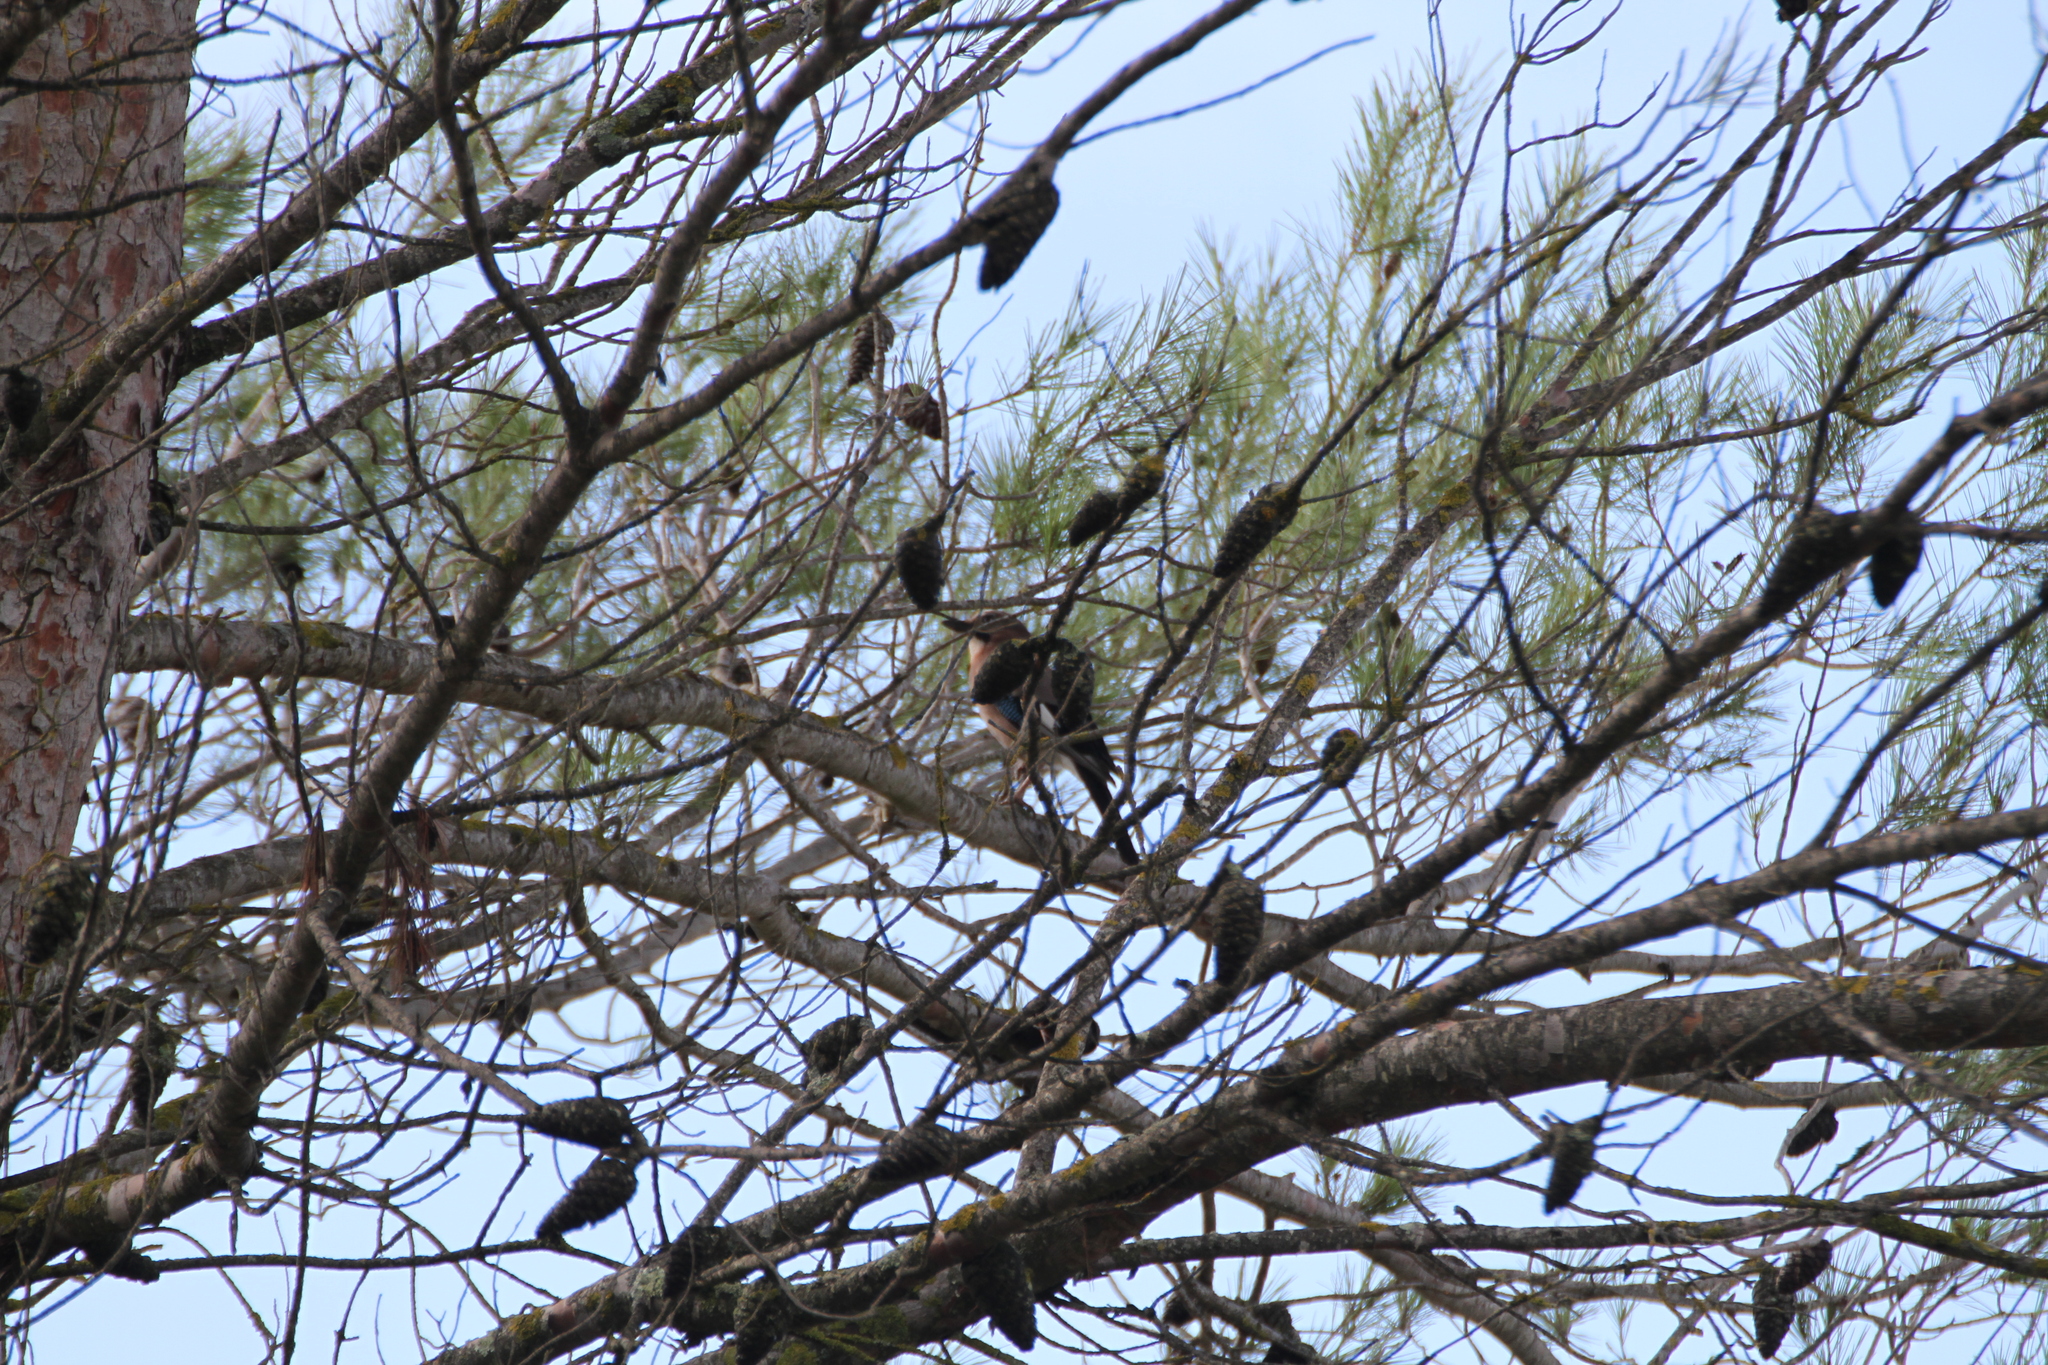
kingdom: Animalia
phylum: Chordata
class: Aves
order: Passeriformes
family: Corvidae
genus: Garrulus
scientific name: Garrulus glandarius
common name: Eurasian jay
